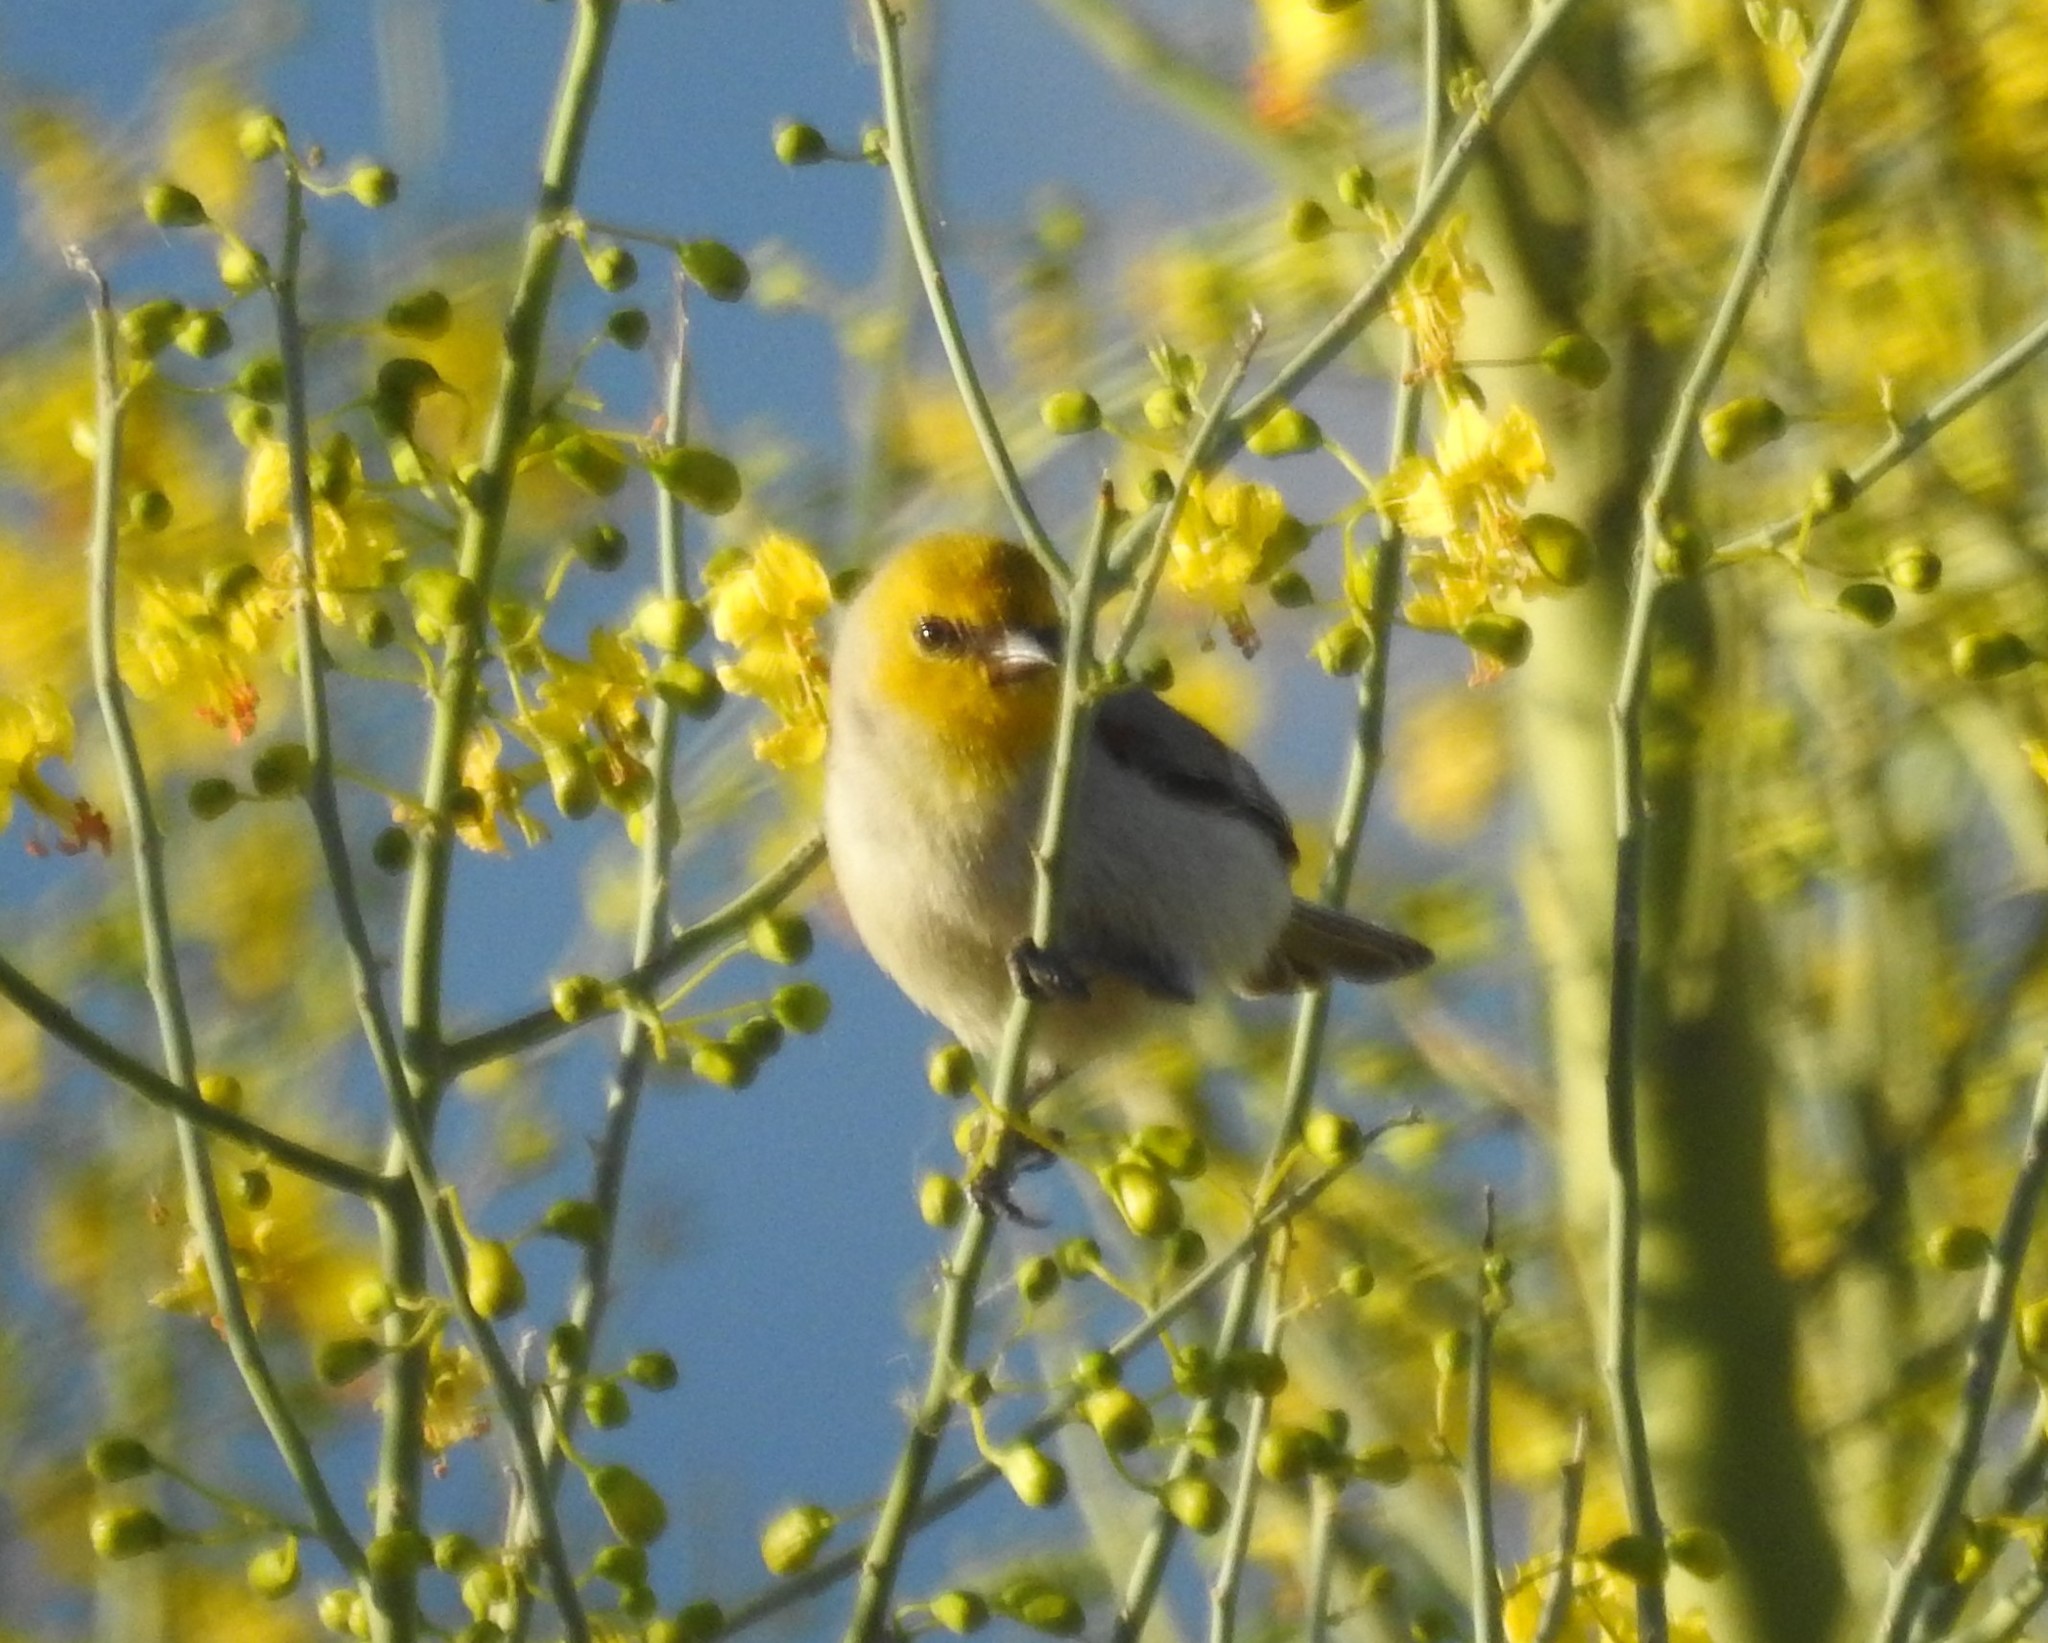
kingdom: Animalia
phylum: Chordata
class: Aves
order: Passeriformes
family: Remizidae
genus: Auriparus
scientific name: Auriparus flaviceps
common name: Verdin
